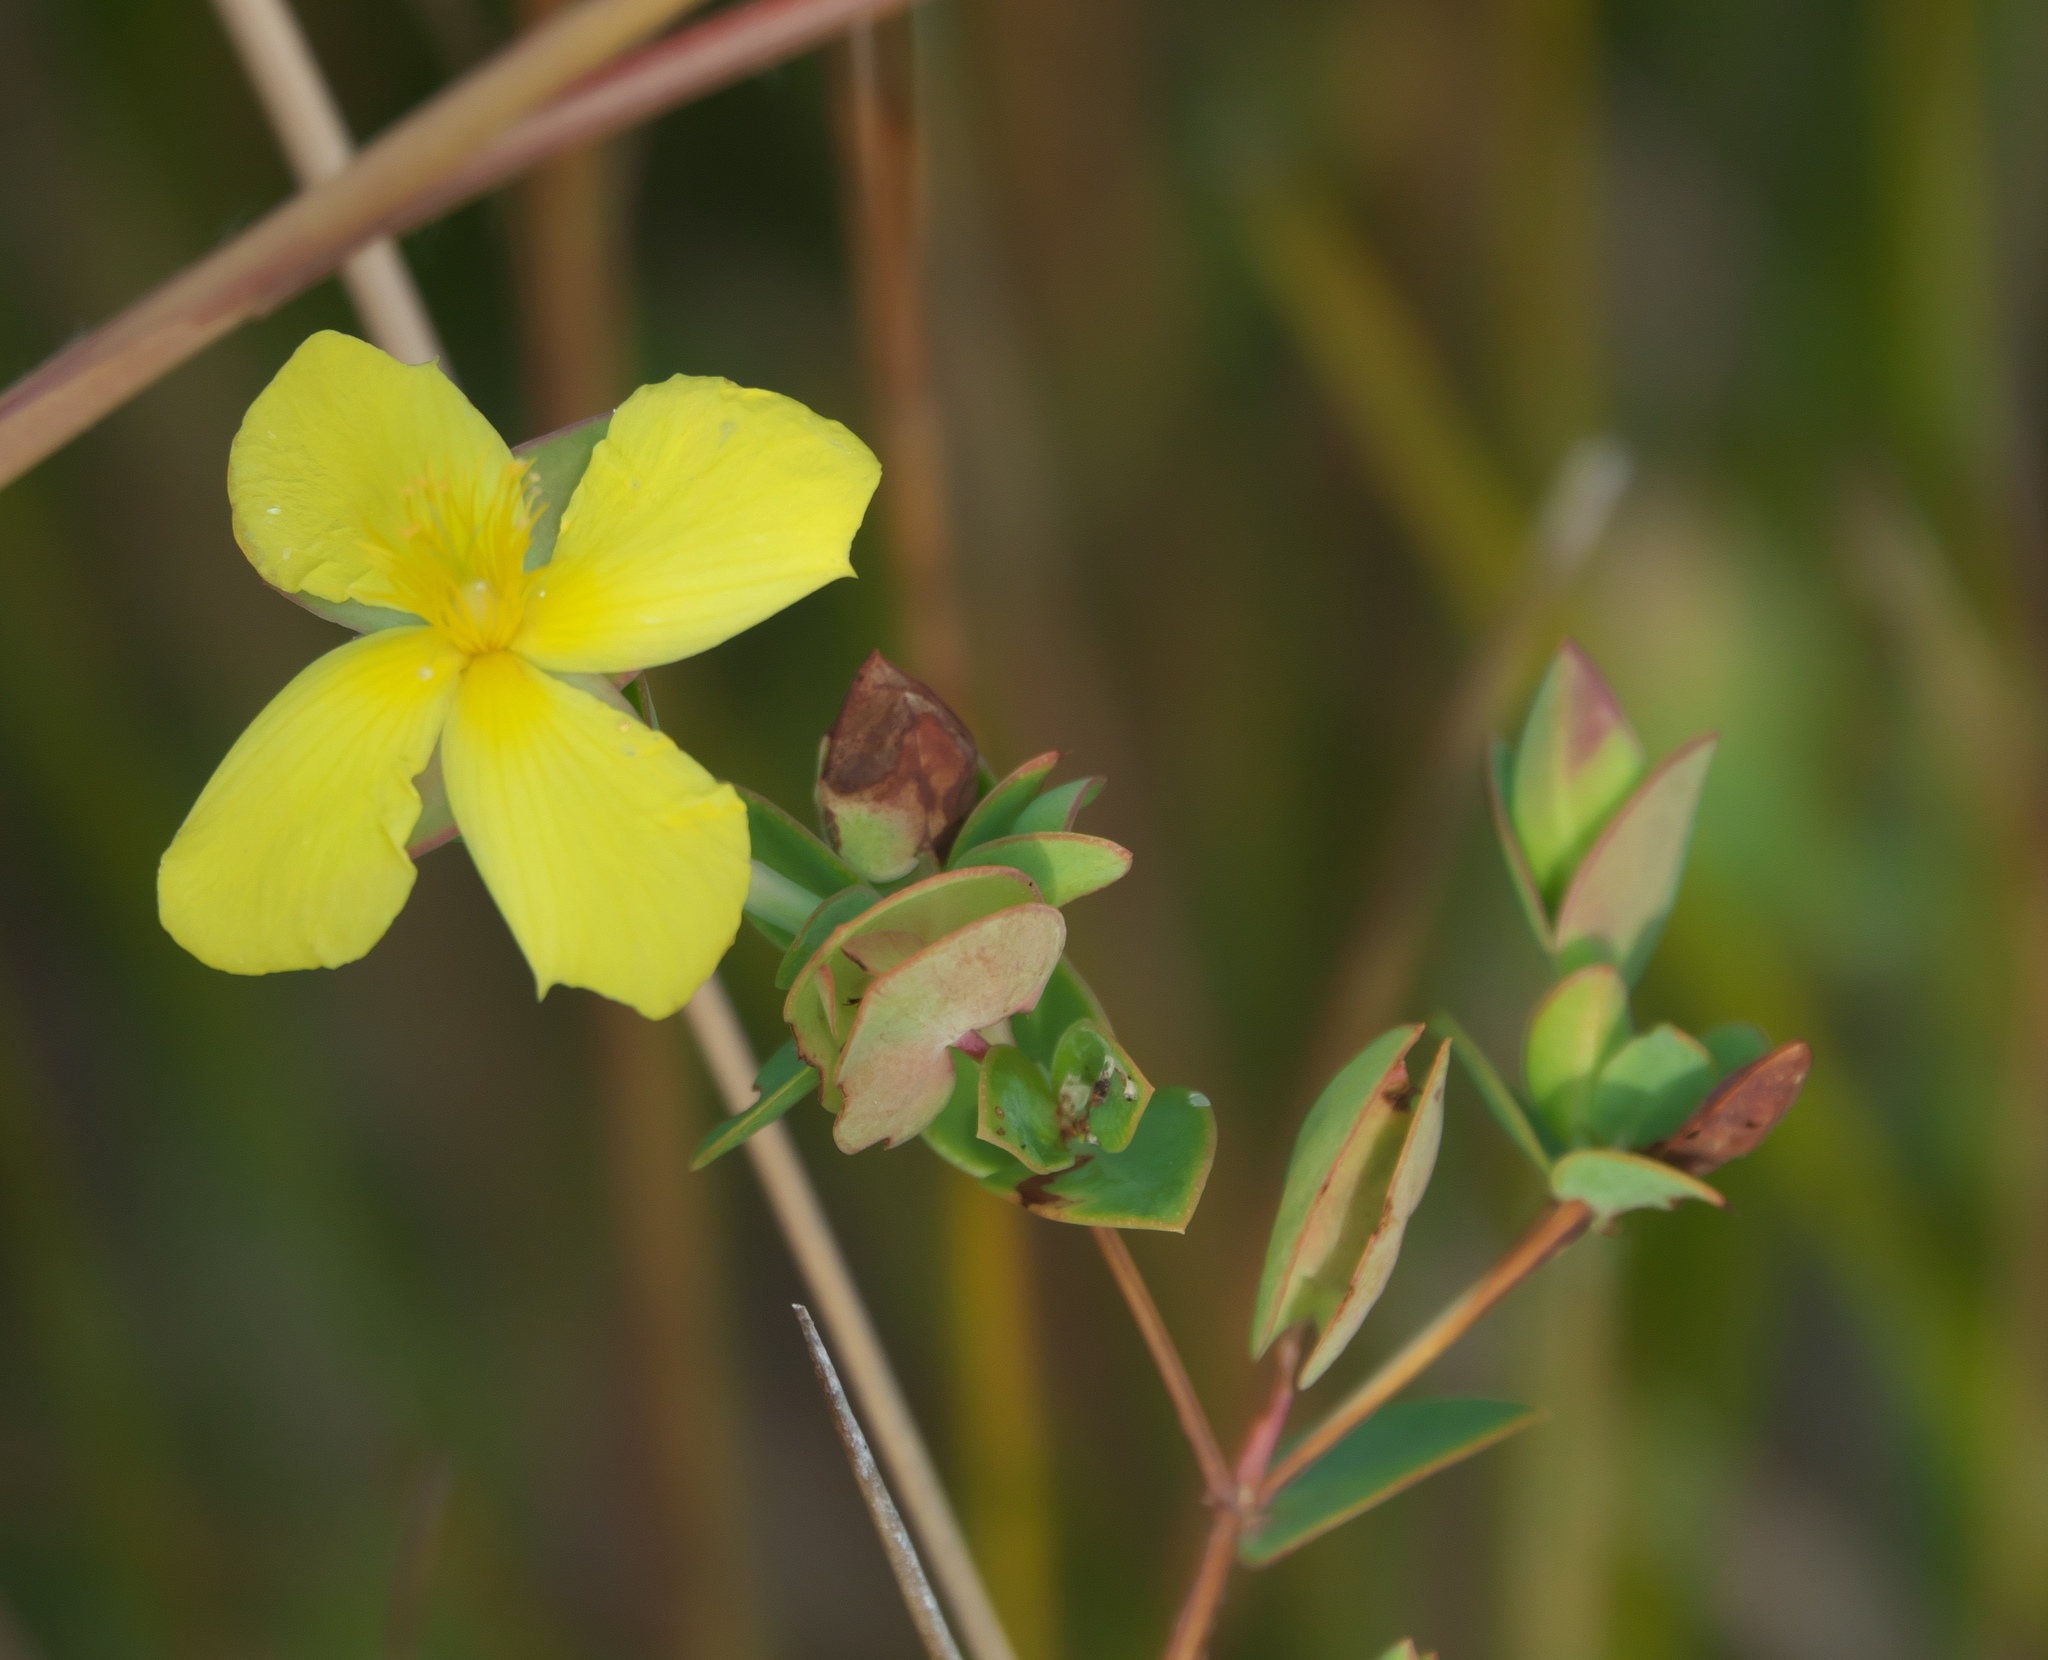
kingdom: Plantae
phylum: Tracheophyta
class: Magnoliopsida
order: Malpighiales
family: Hypericaceae
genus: Hypericum
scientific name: Hypericum tetrapetalum
